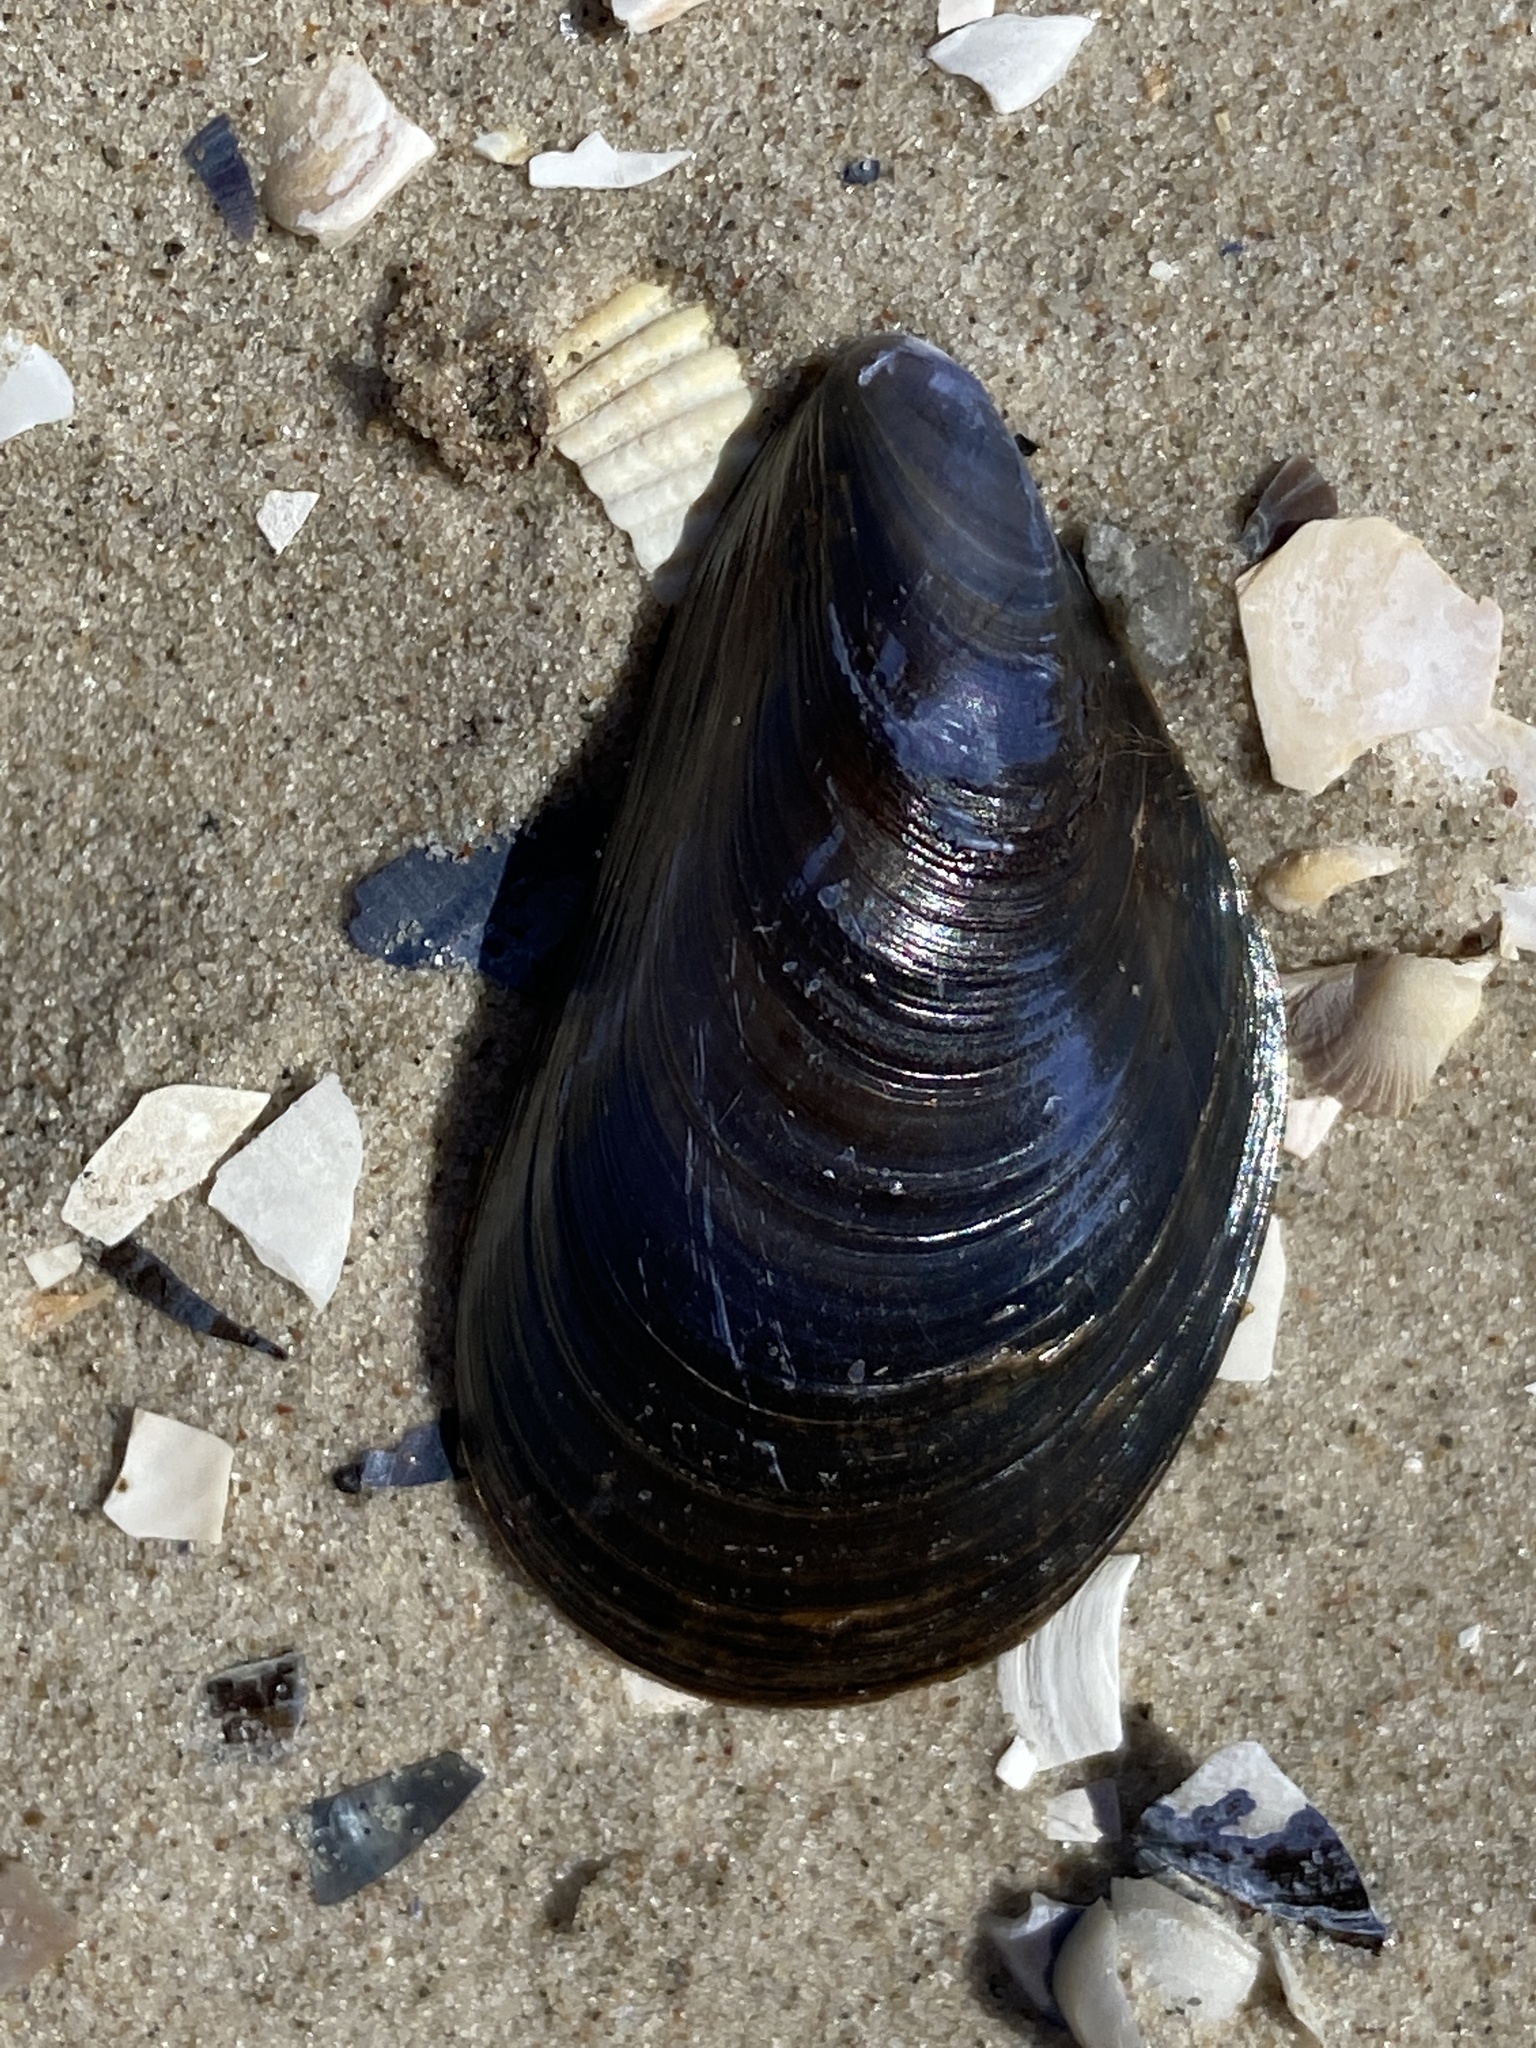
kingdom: Animalia
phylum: Mollusca
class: Bivalvia
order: Mytilida
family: Mytilidae
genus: Mytilus
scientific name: Mytilus edulis
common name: Blue mussel
